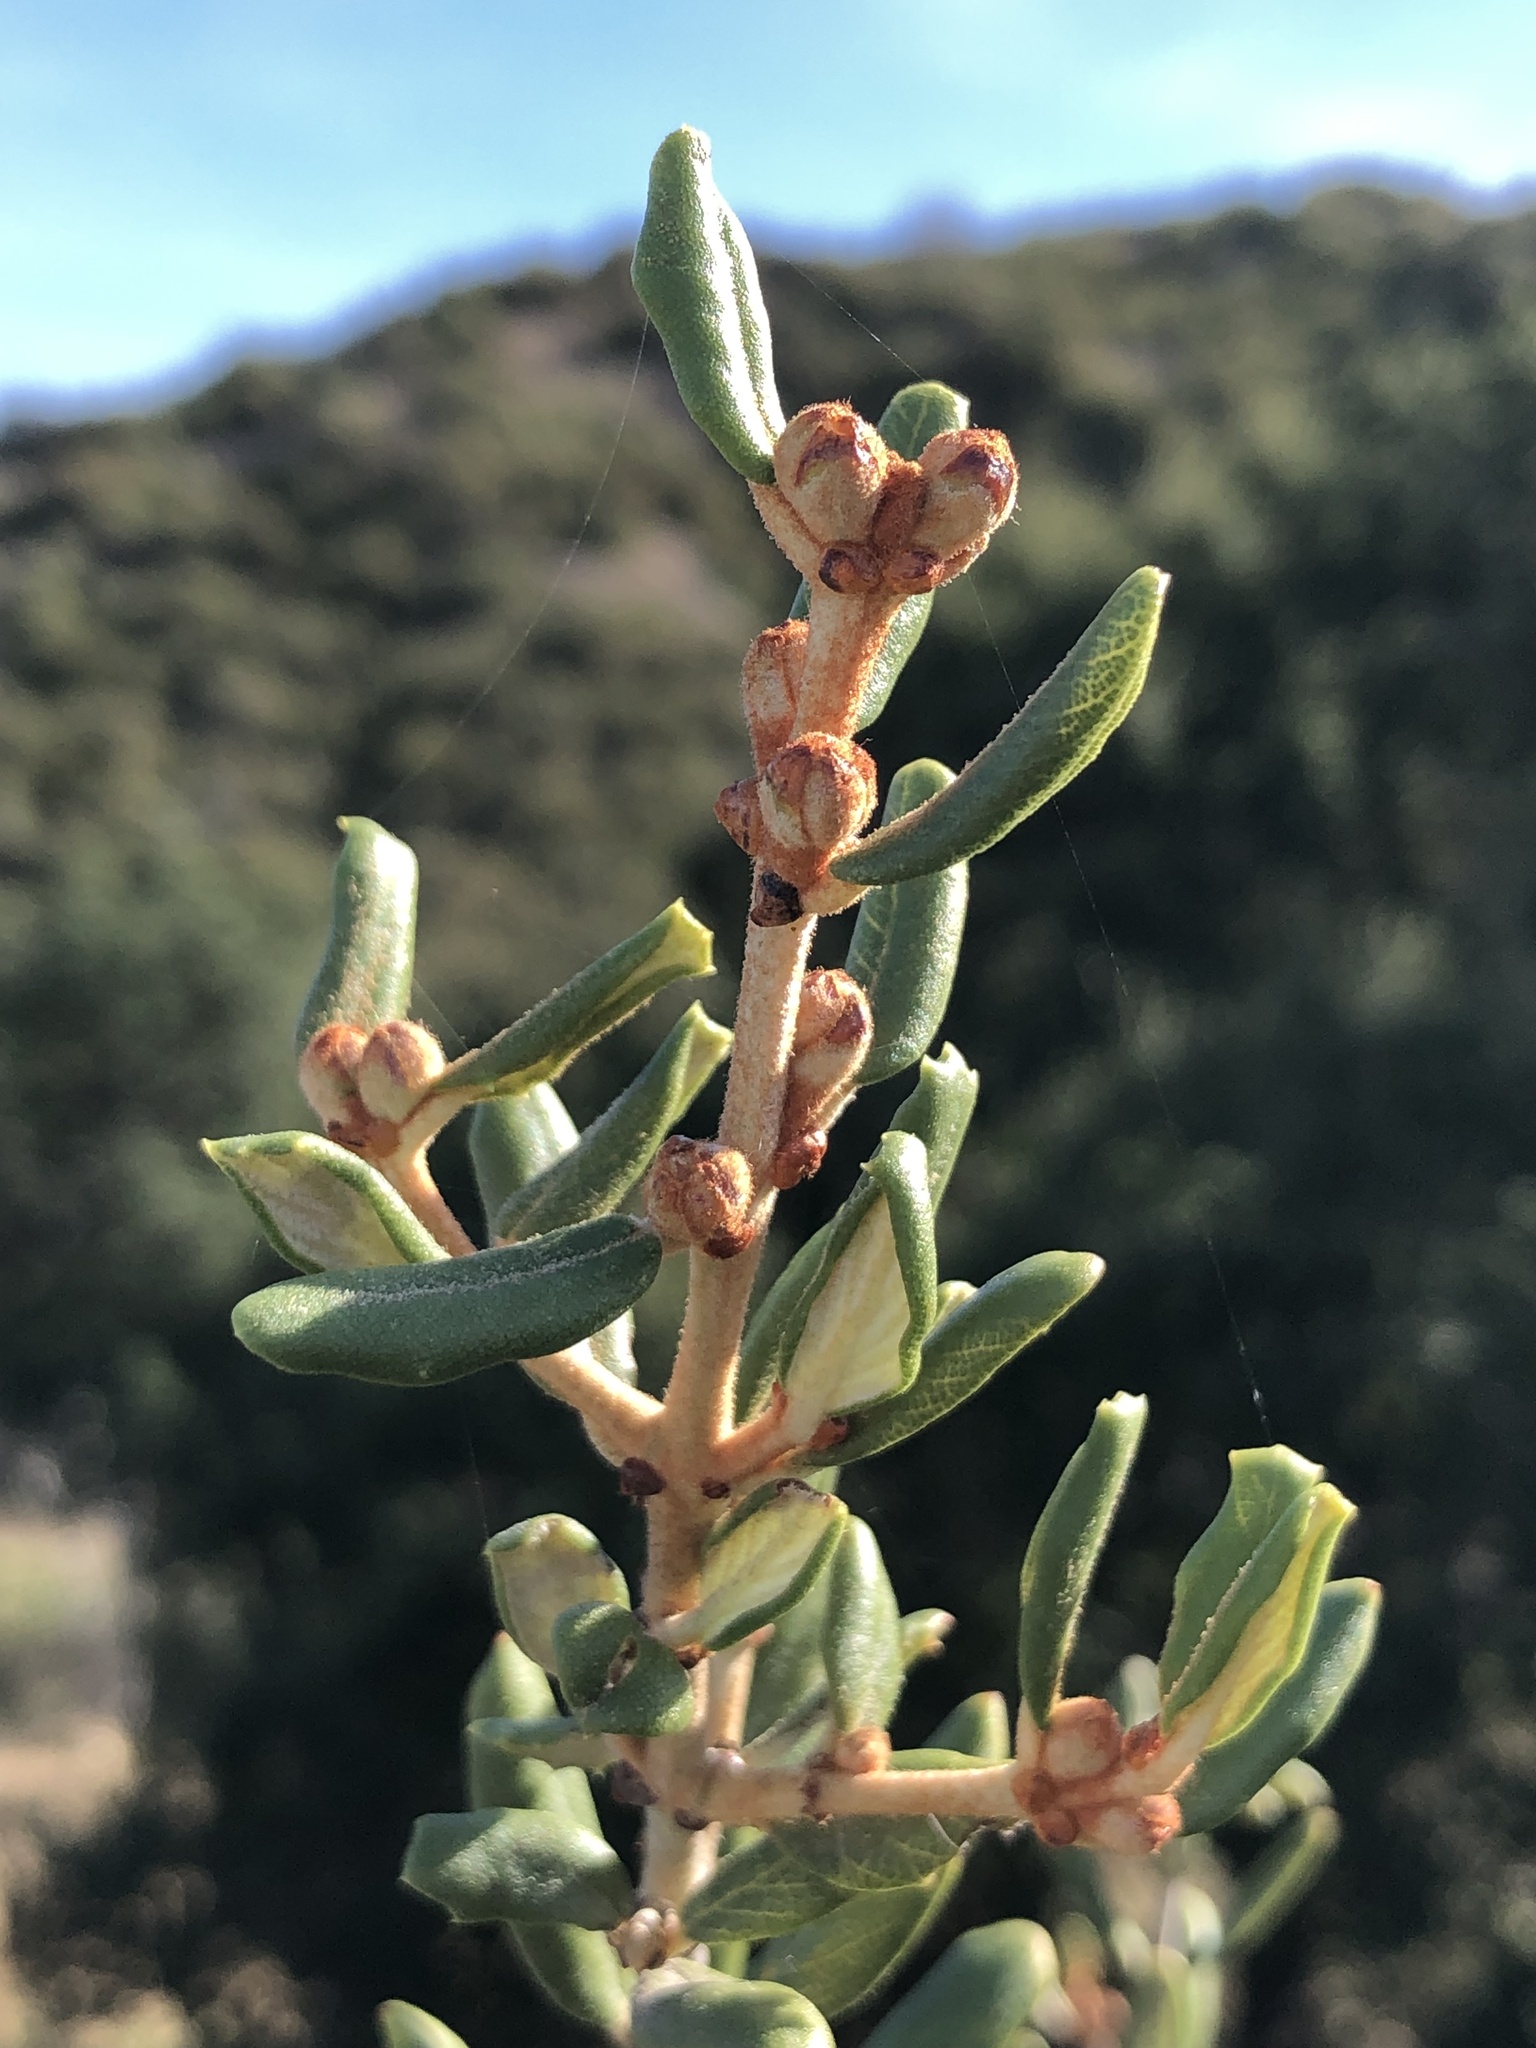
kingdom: Plantae
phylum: Tracheophyta
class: Magnoliopsida
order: Rosales
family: Rhamnaceae
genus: Ceanothus
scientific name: Ceanothus crassifolius
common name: Hoaryleaf ceanothus
